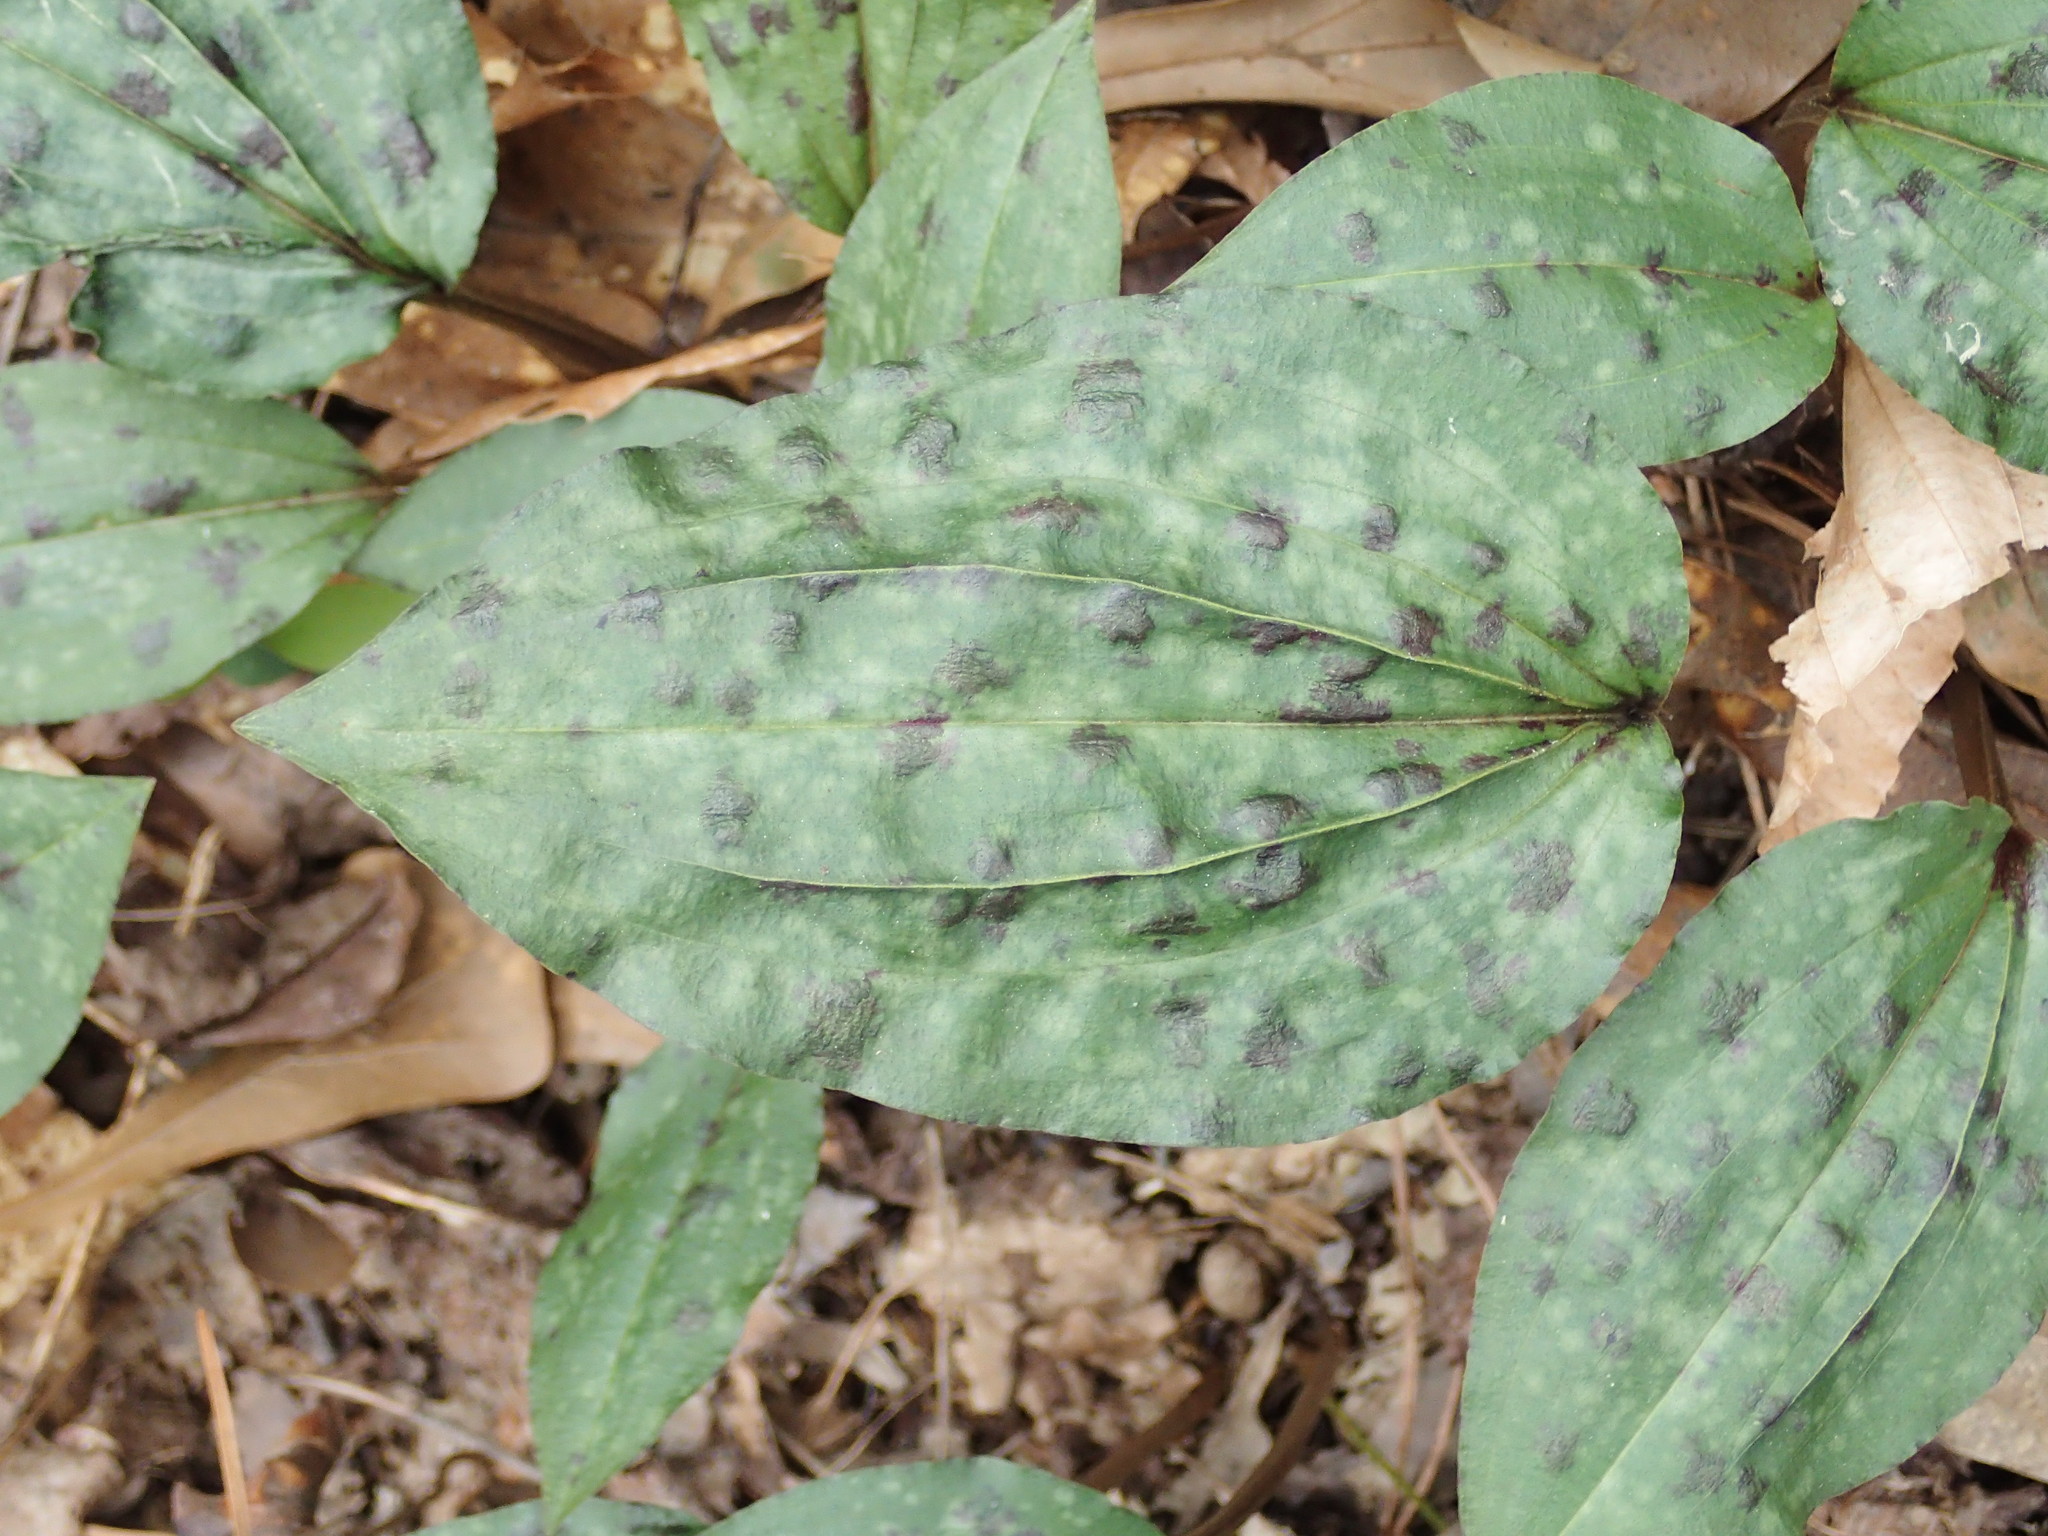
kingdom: Plantae
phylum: Tracheophyta
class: Liliopsida
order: Asparagales
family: Orchidaceae
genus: Tipularia
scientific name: Tipularia discolor
